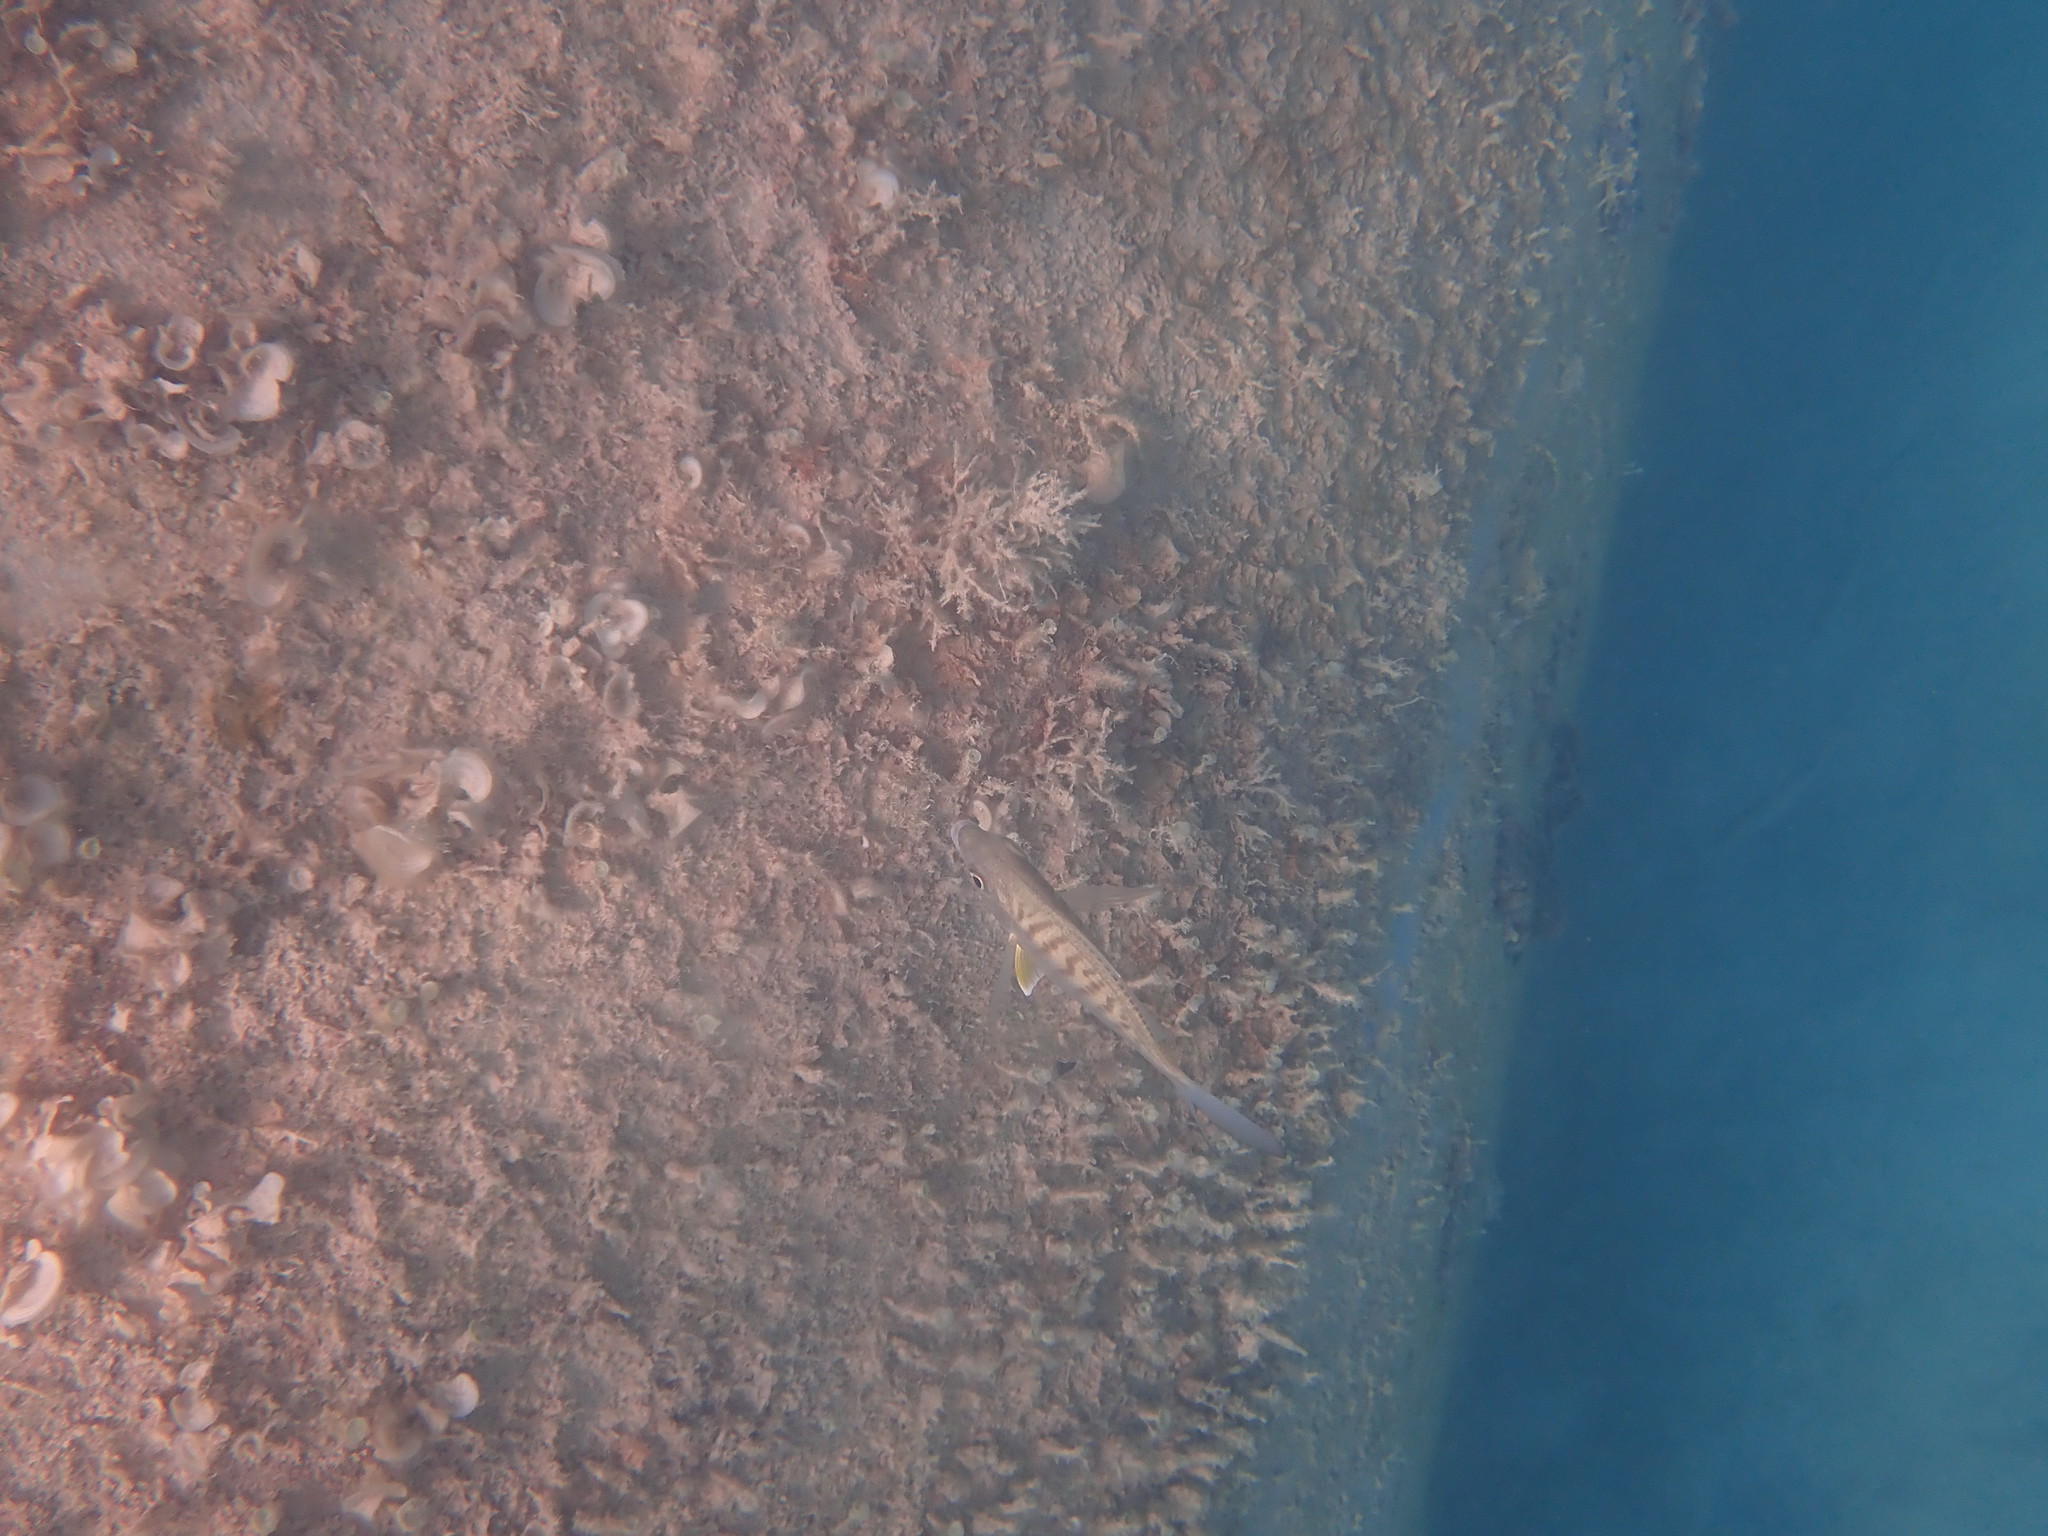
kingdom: Animalia
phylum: Chordata
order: Perciformes
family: Gerreidae
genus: Gerres
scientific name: Gerres cinereus
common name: Hedow
